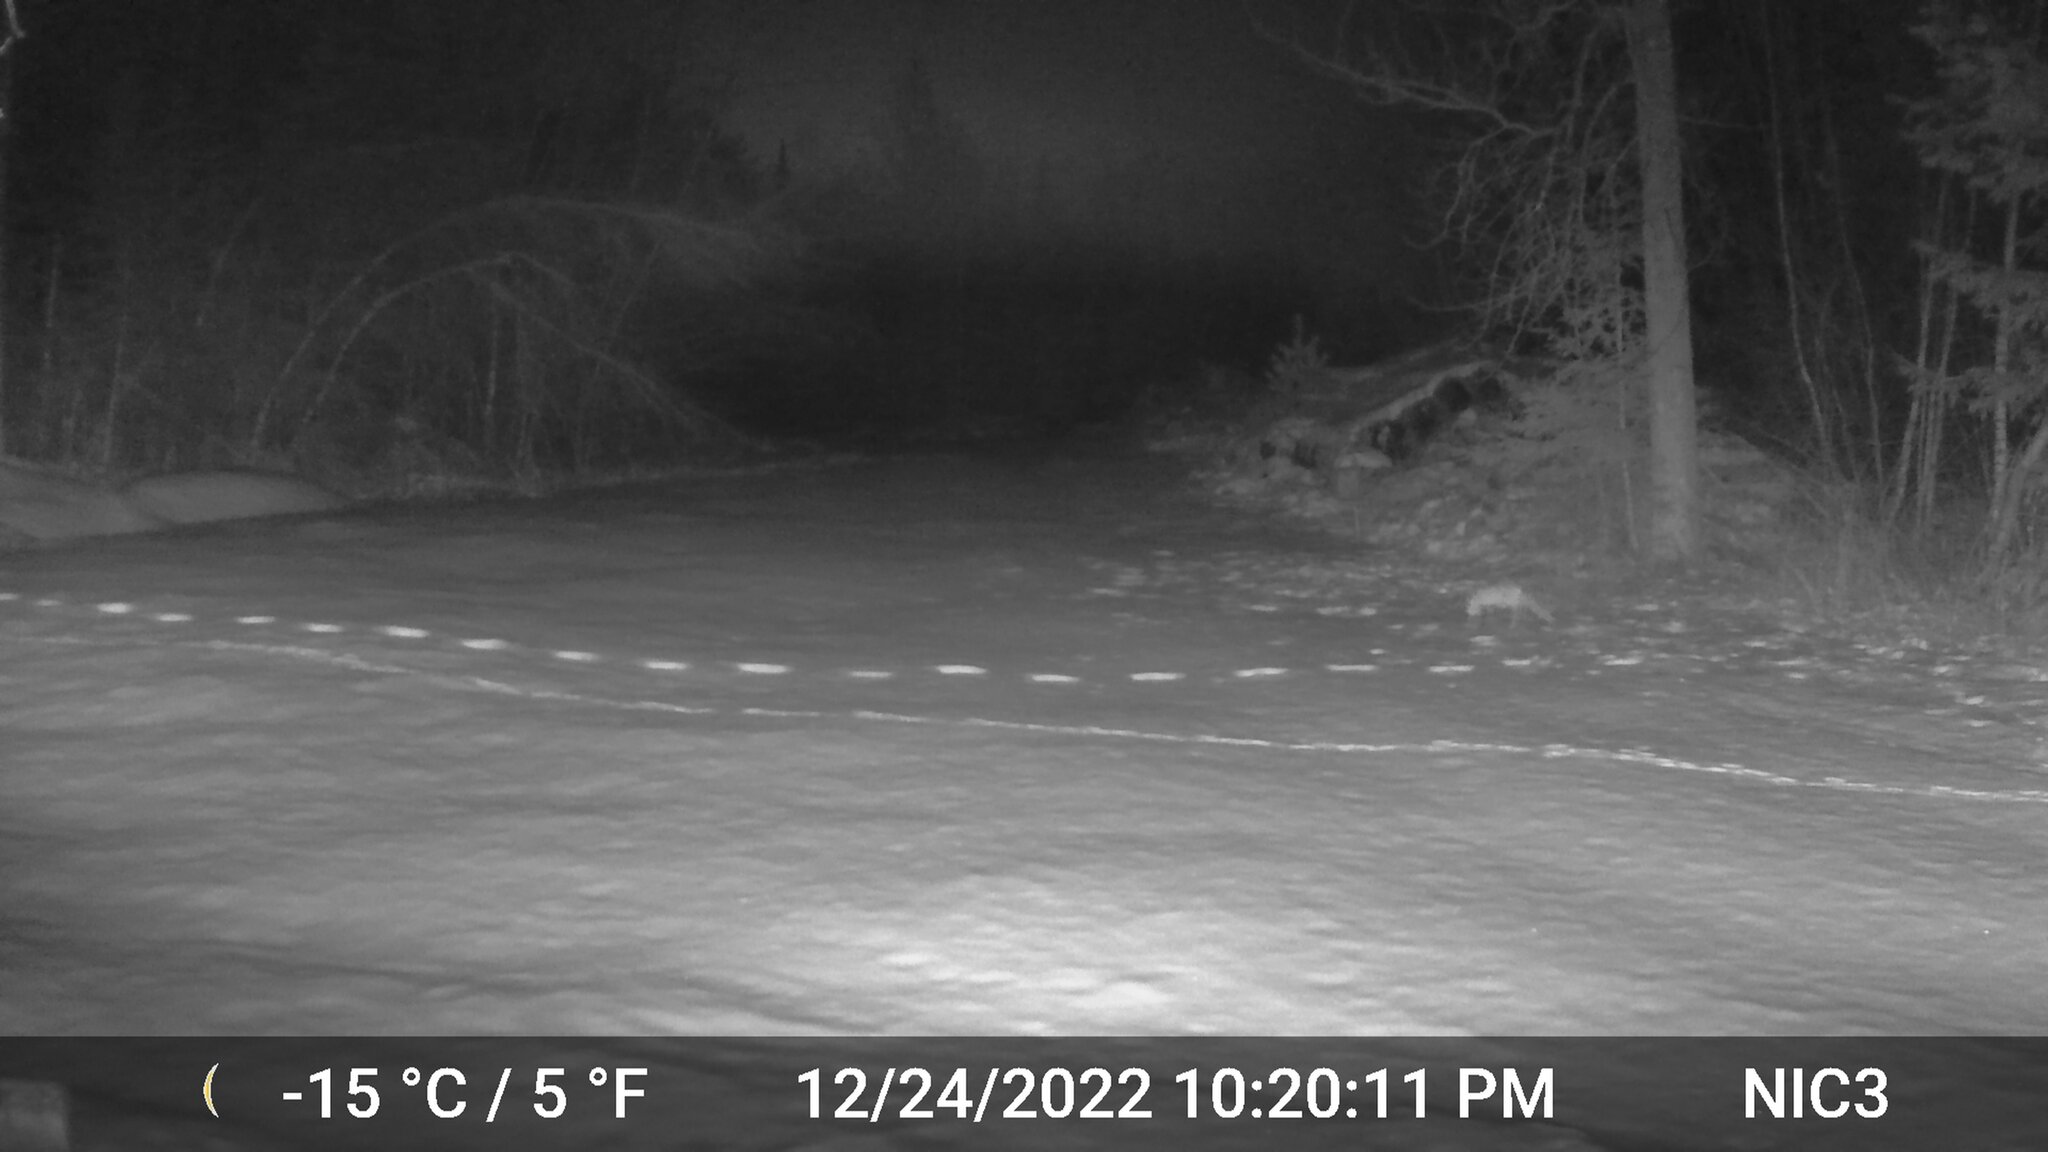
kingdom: Animalia
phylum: Chordata
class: Mammalia
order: Carnivora
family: Canidae
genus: Vulpes
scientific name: Vulpes vulpes
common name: Red fox
